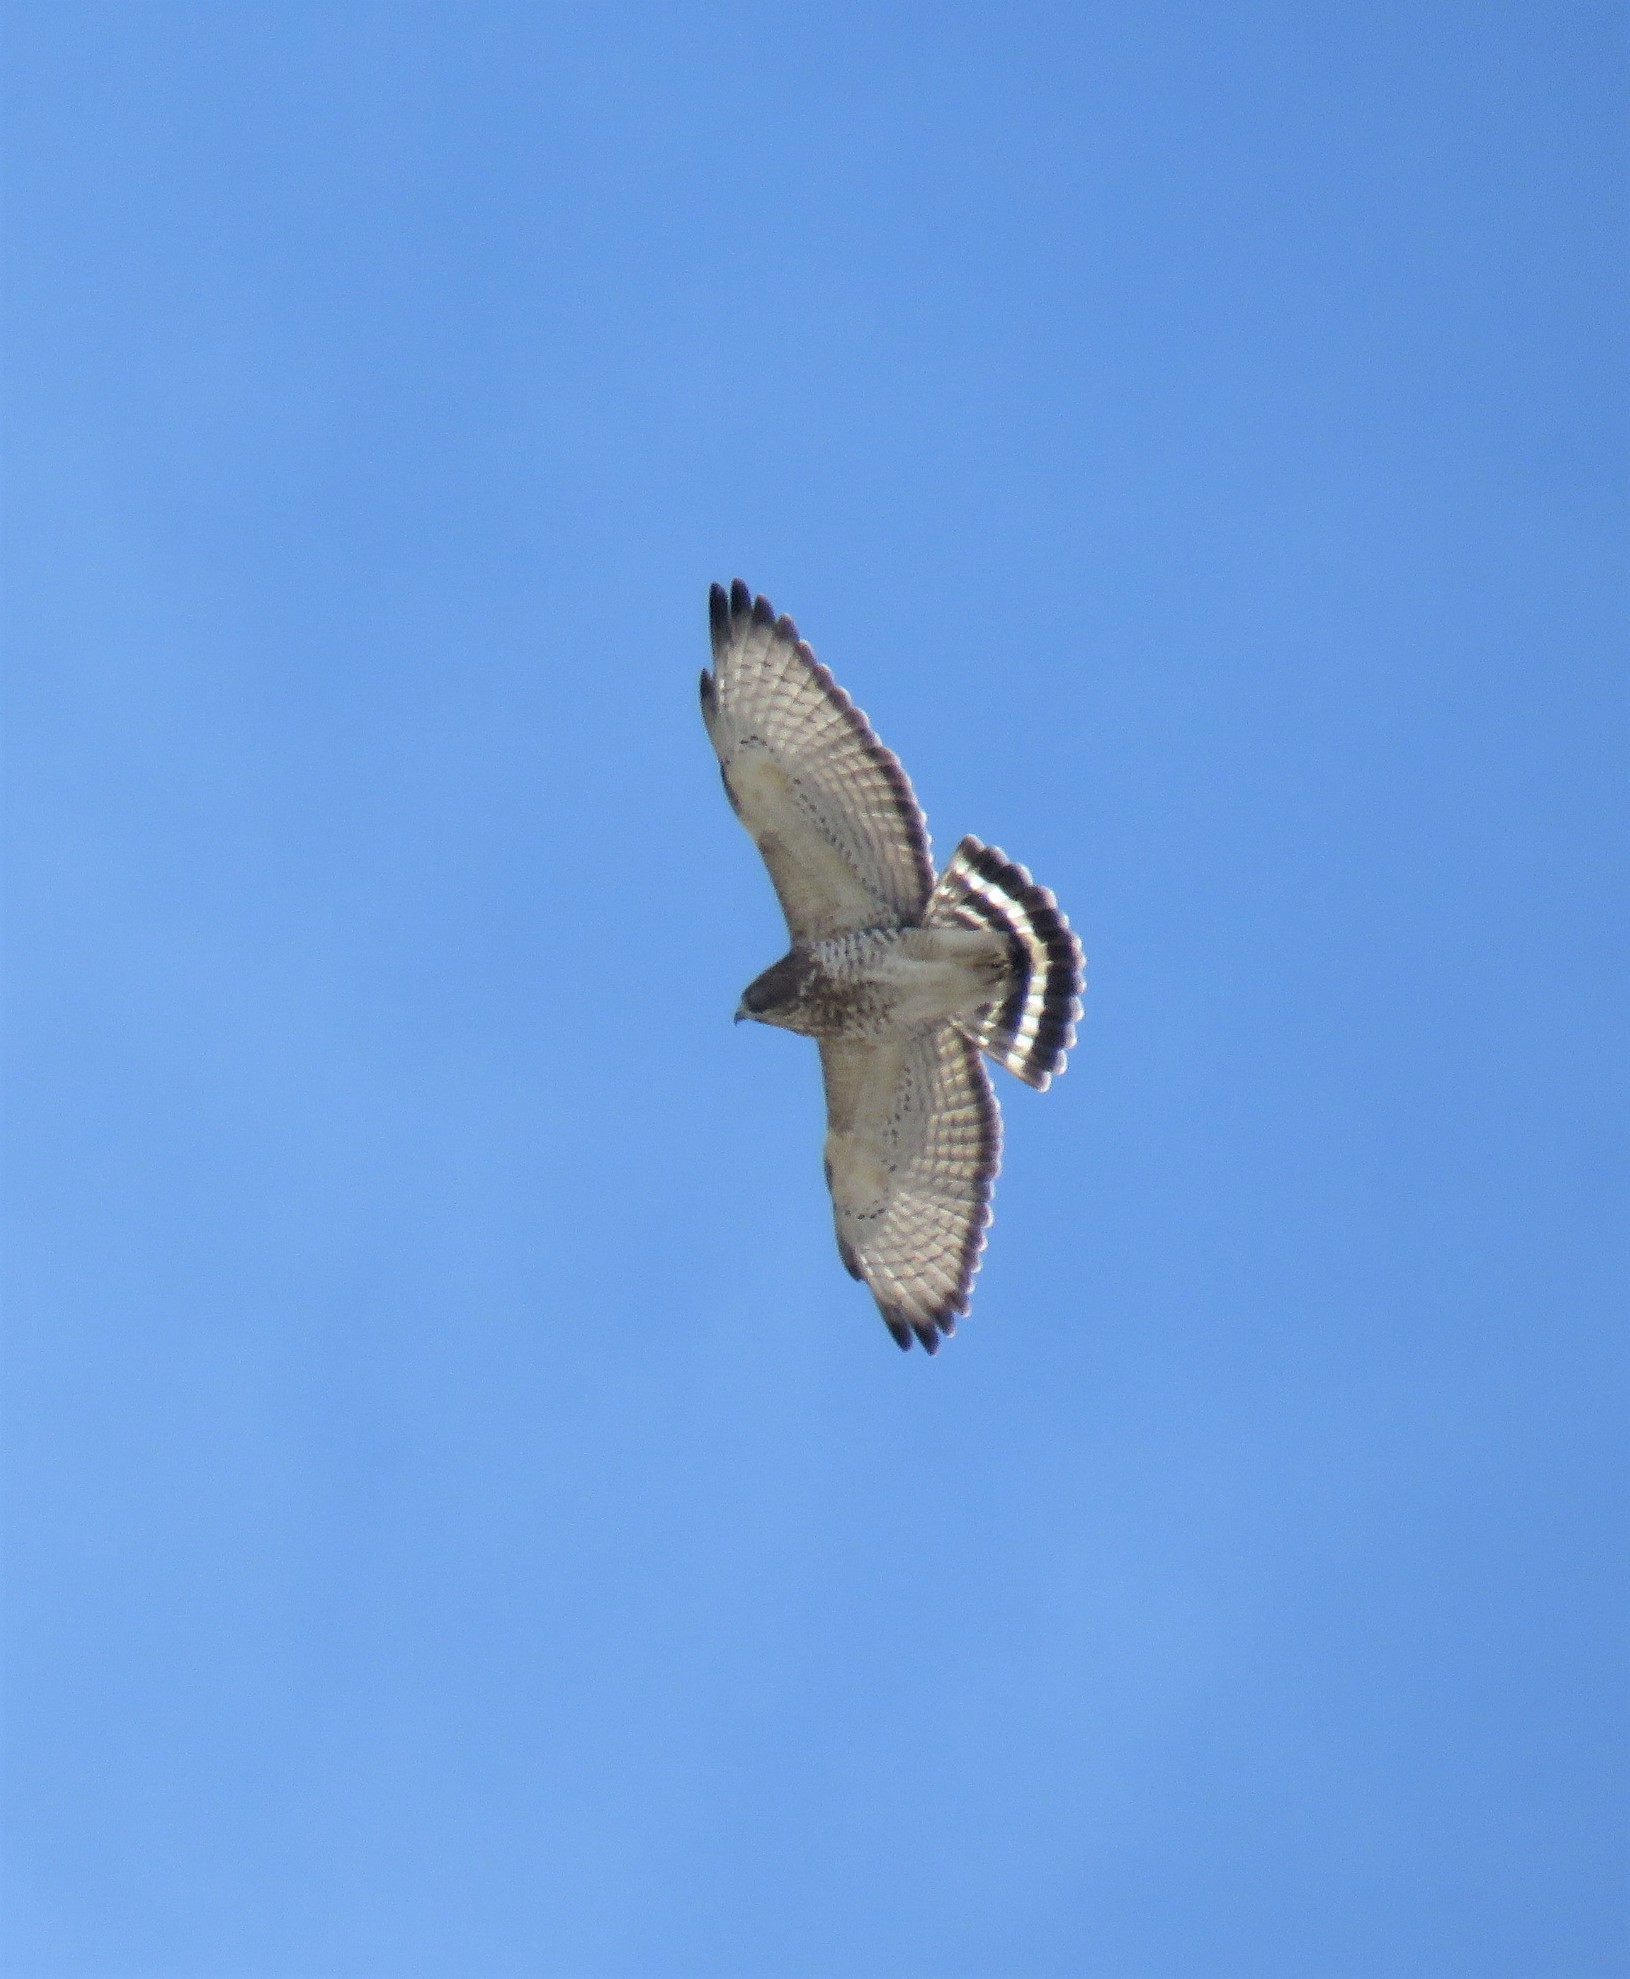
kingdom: Animalia
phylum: Chordata
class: Aves
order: Accipitriformes
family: Accipitridae
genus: Buteo
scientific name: Buteo platypterus
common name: Broad-winged hawk
